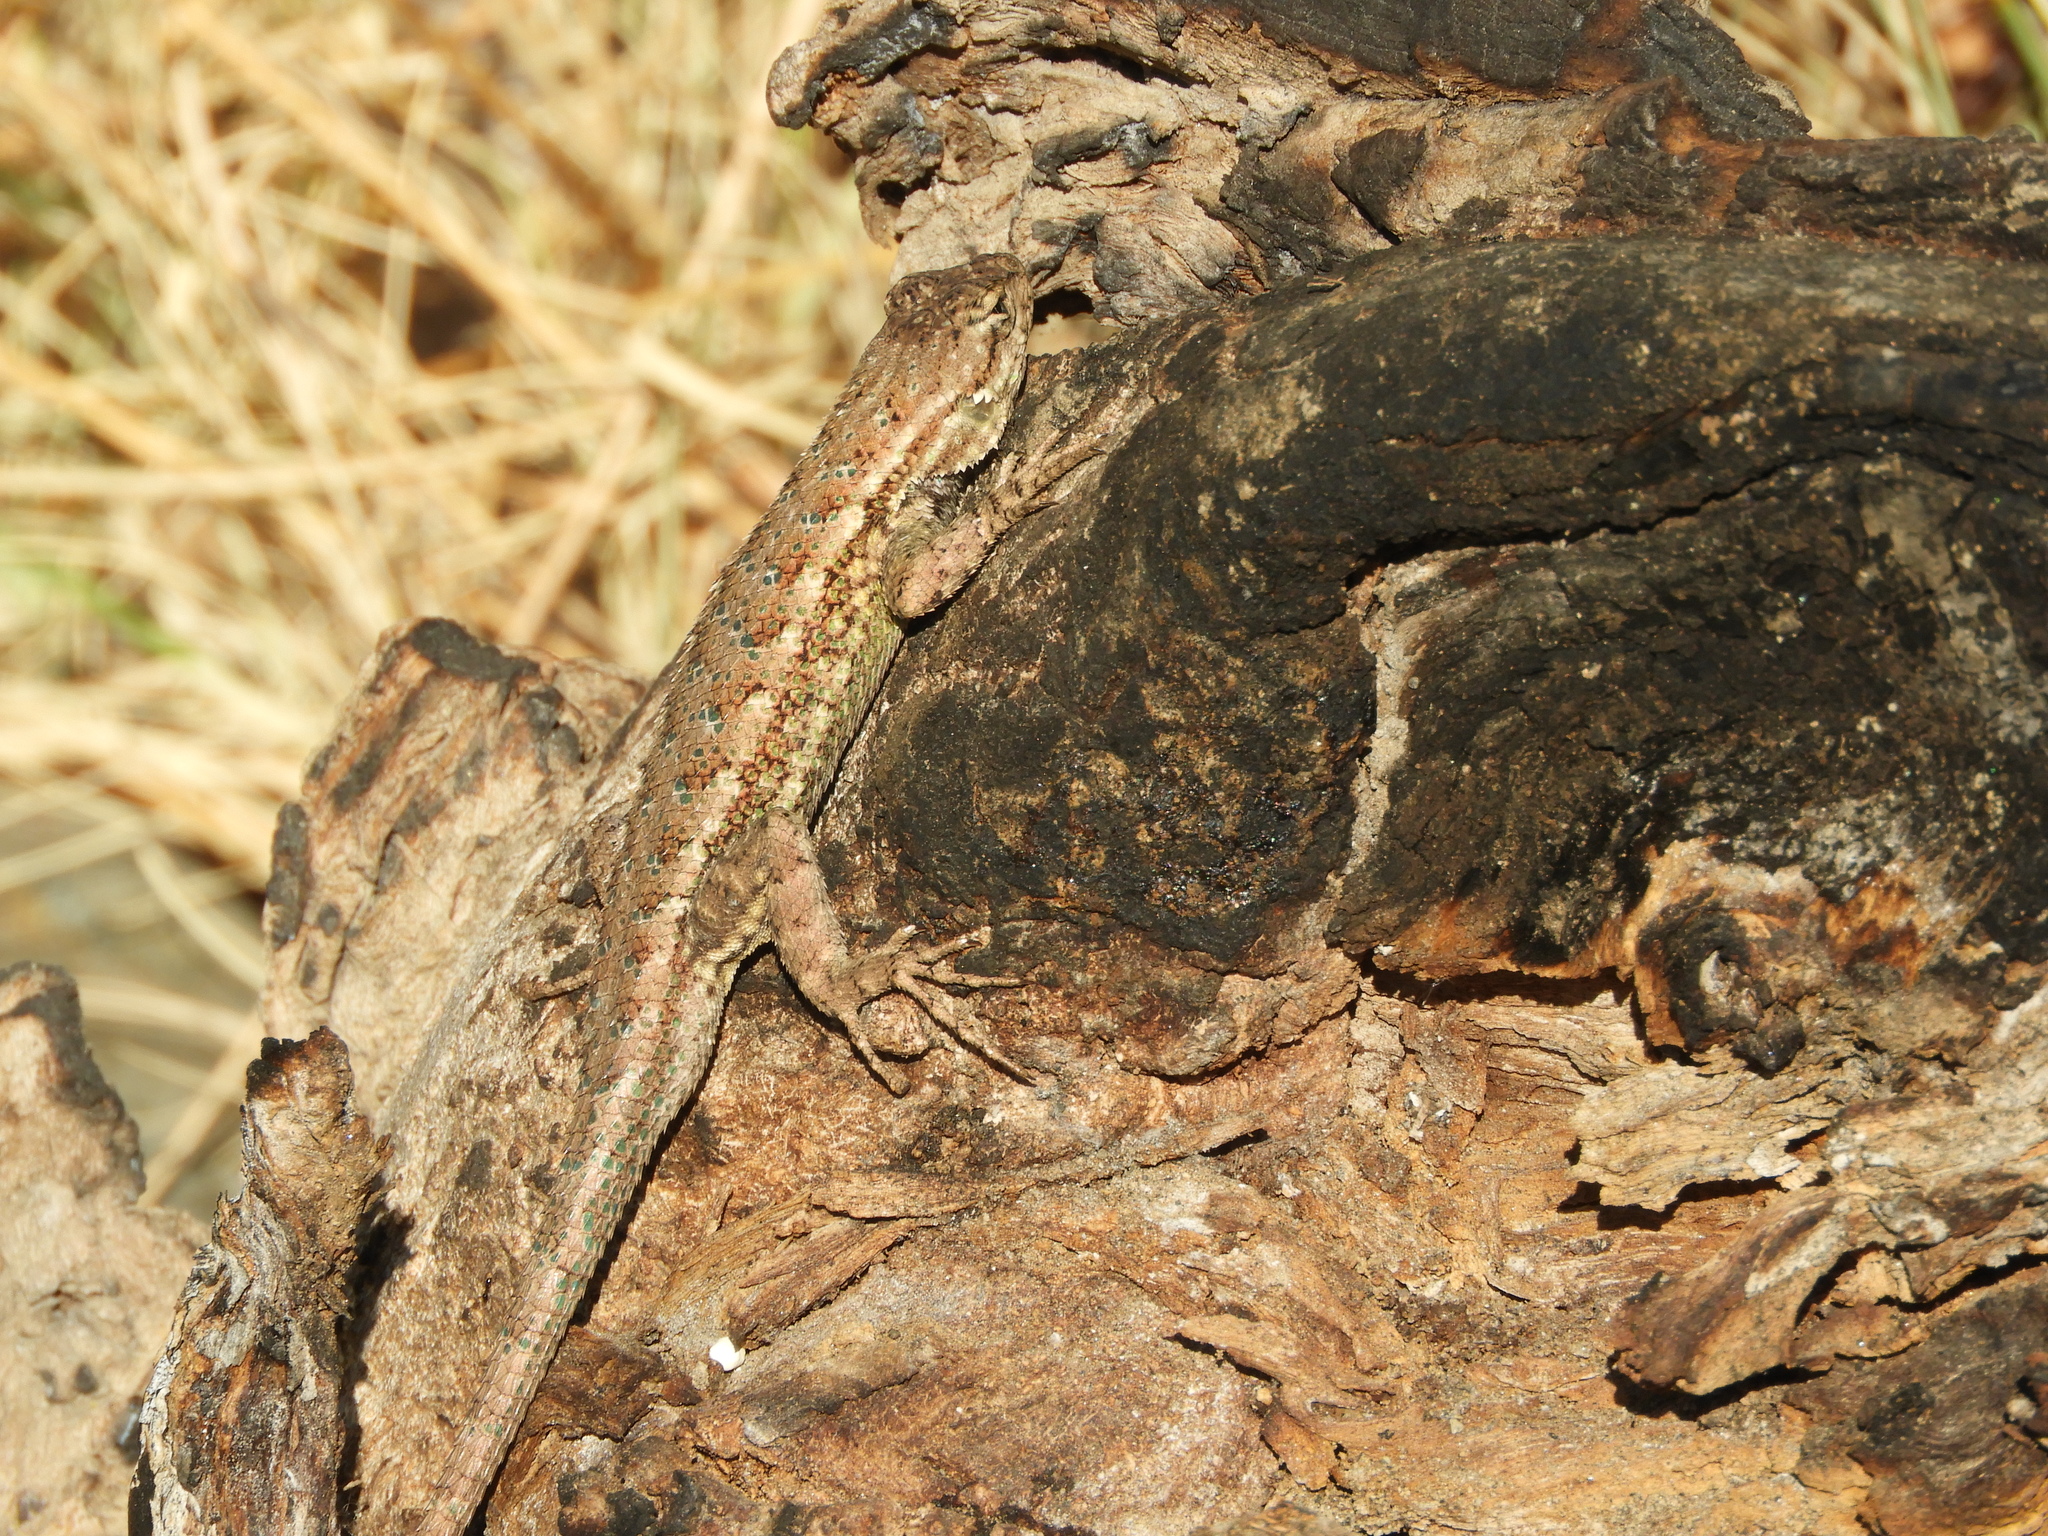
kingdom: Animalia
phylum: Chordata
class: Squamata
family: Phrynosomatidae
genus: Sceloporus
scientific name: Sceloporus occidentalis
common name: Western fence lizard
